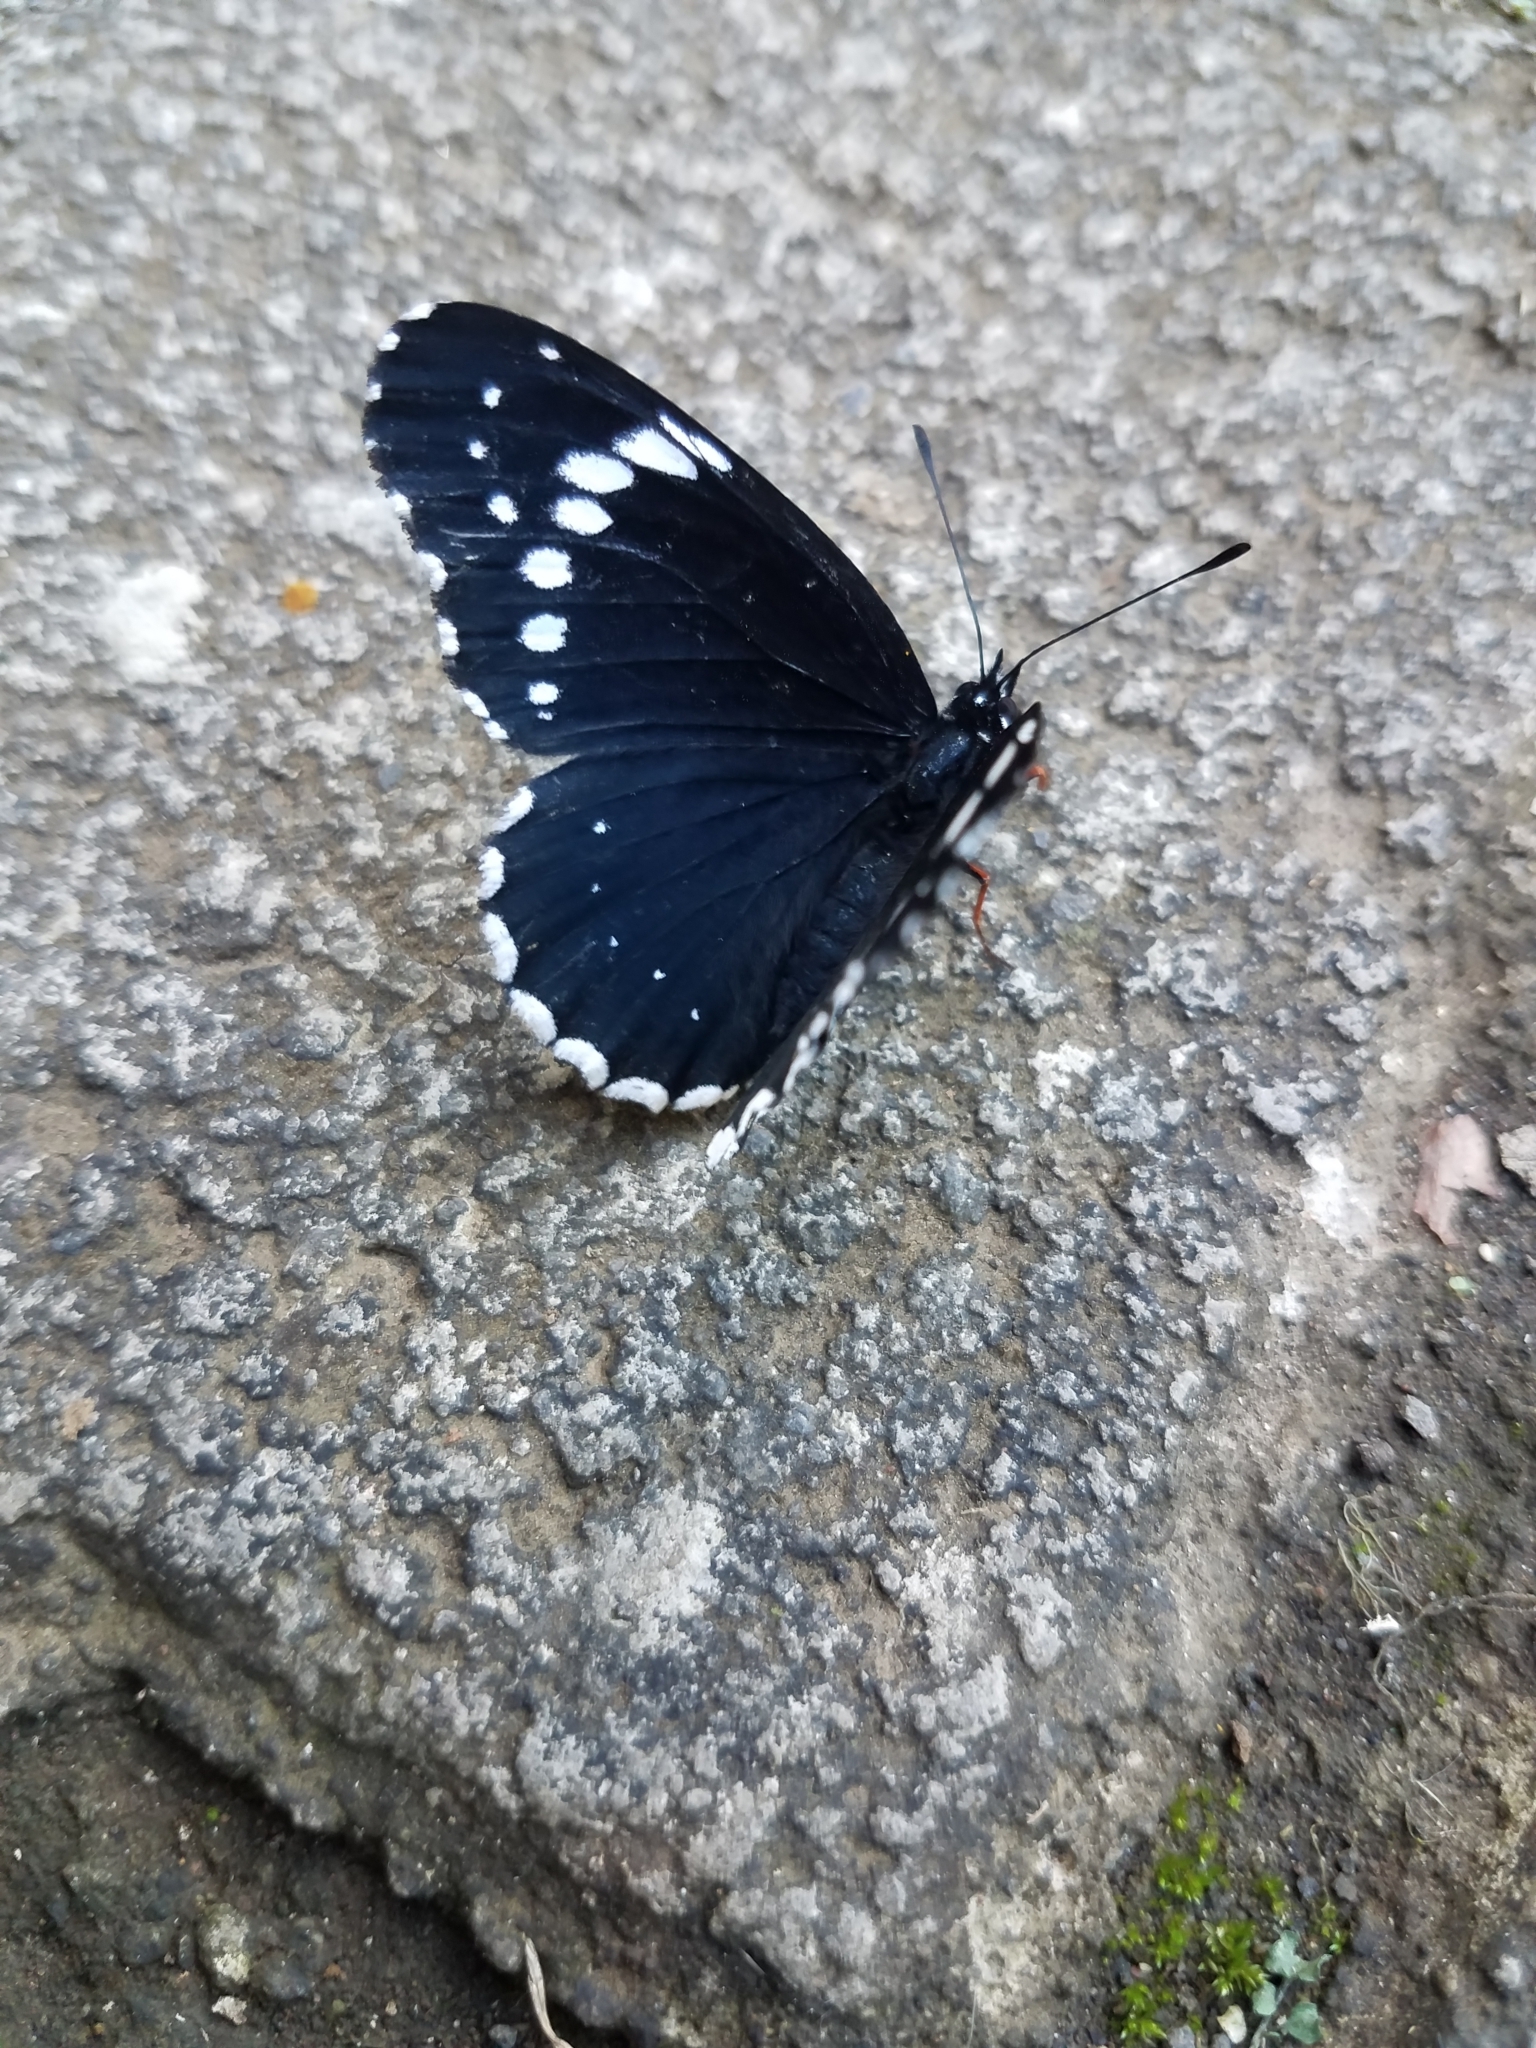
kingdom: Animalia
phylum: Arthropoda
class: Insecta
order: Lepidoptera
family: Nymphalidae
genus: Chlosyne
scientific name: Chlosyne hippodrome
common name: Simple patch
